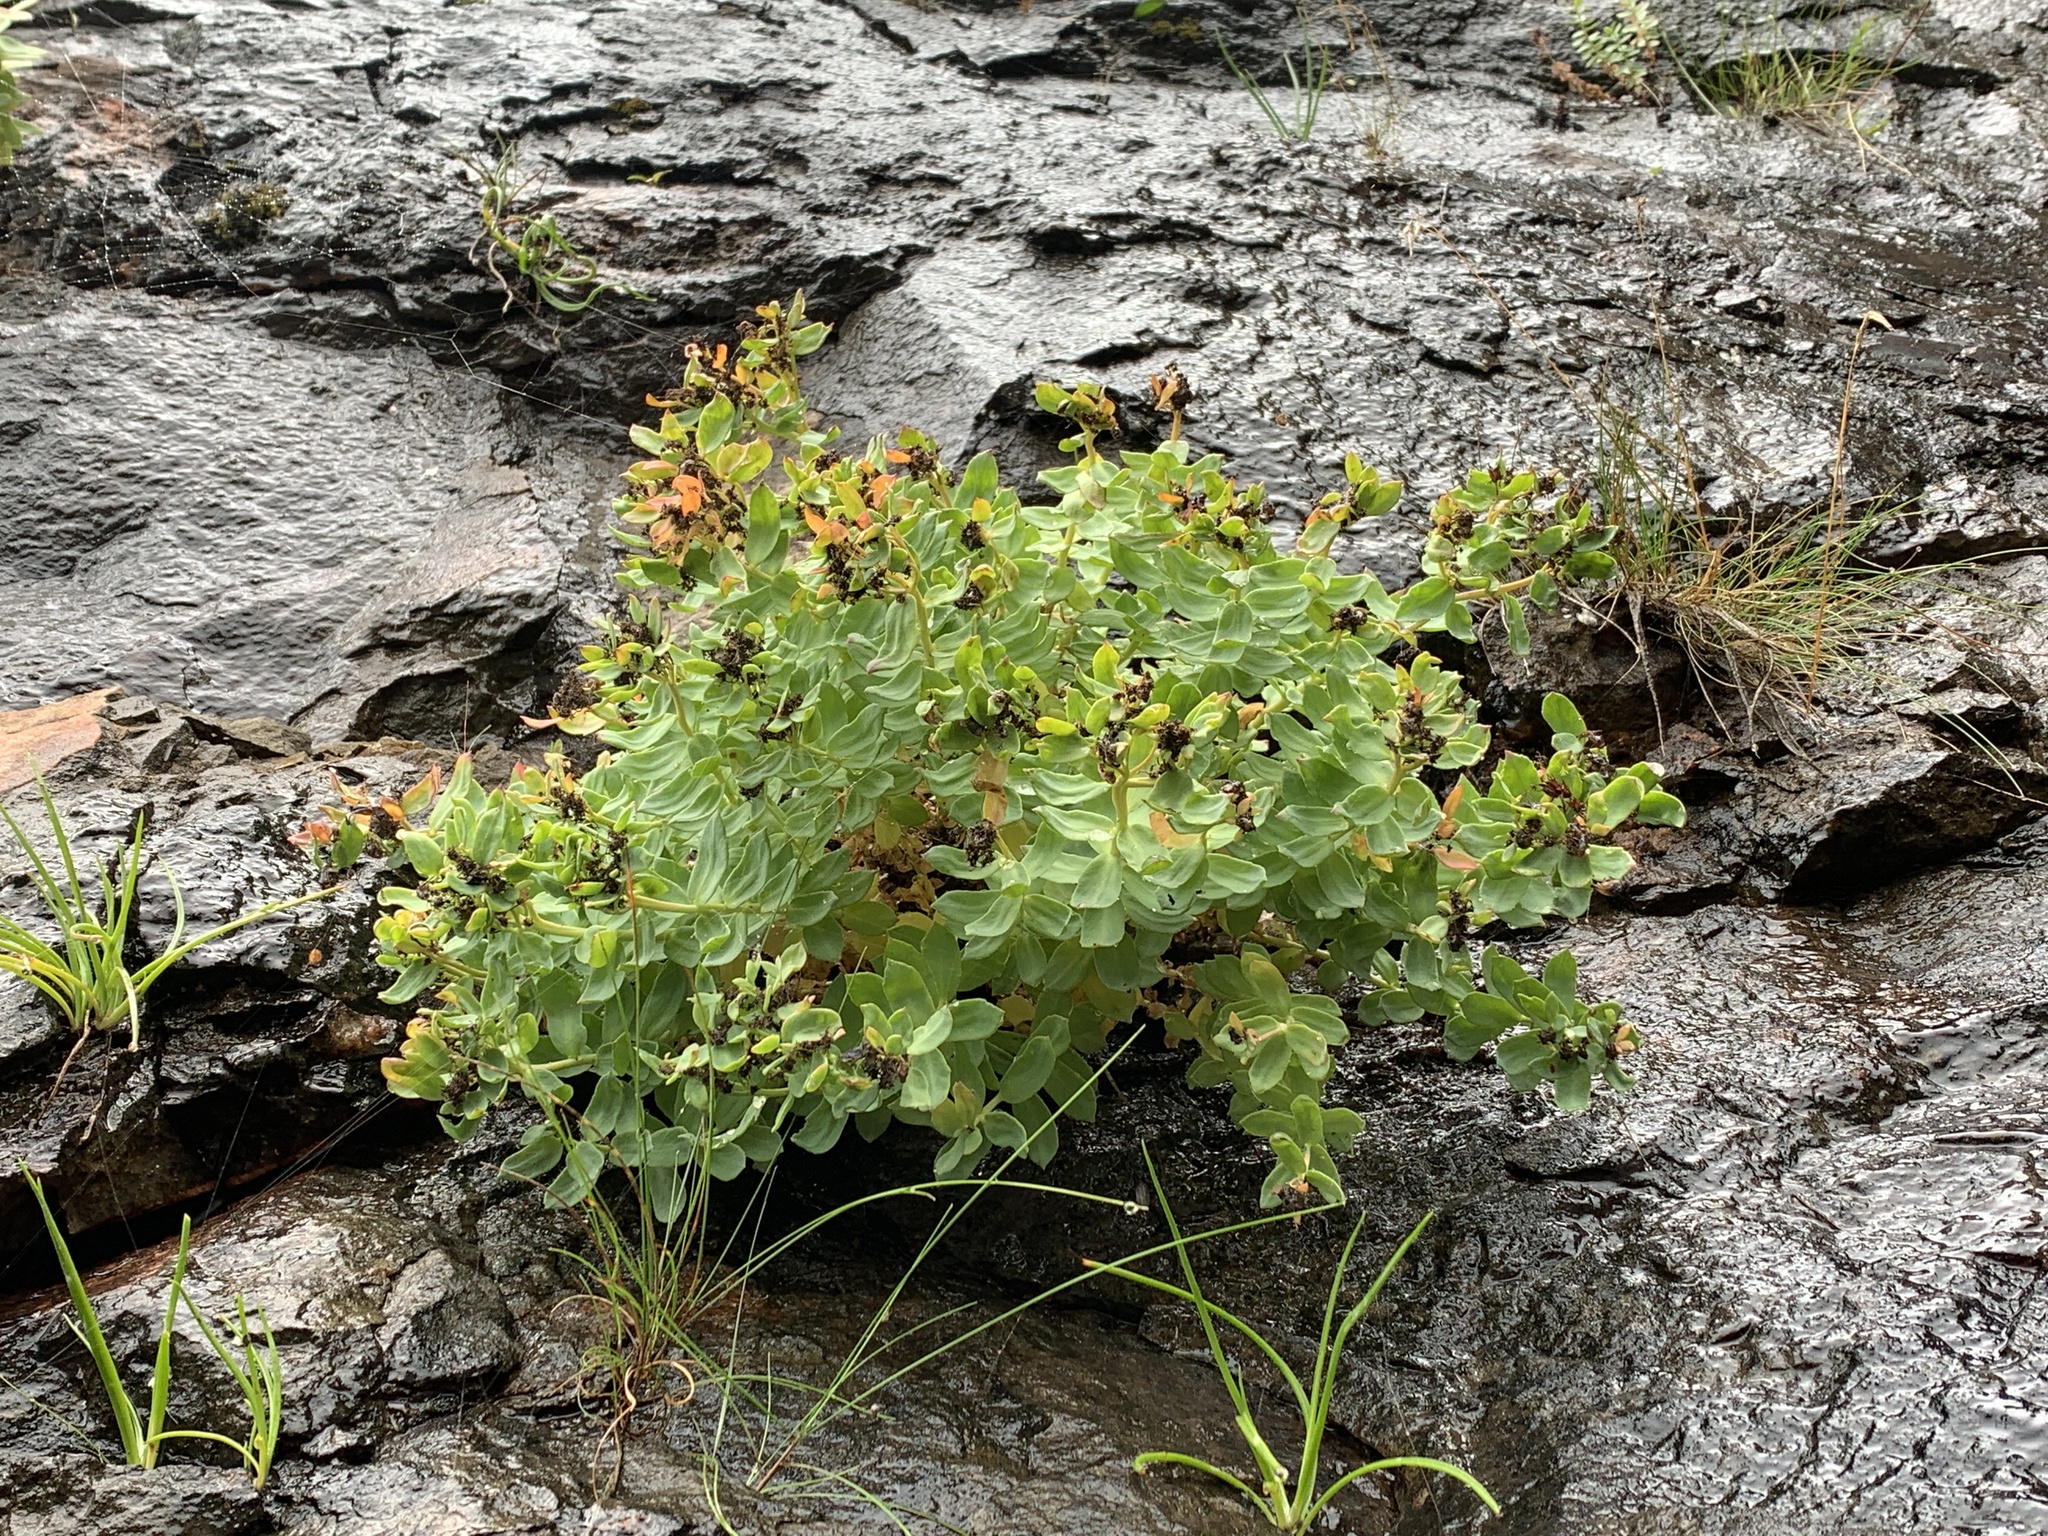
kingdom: Plantae
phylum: Tracheophyta
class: Magnoliopsida
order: Saxifragales
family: Crassulaceae
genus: Rhodiola
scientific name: Rhodiola rosea
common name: Roseroot
